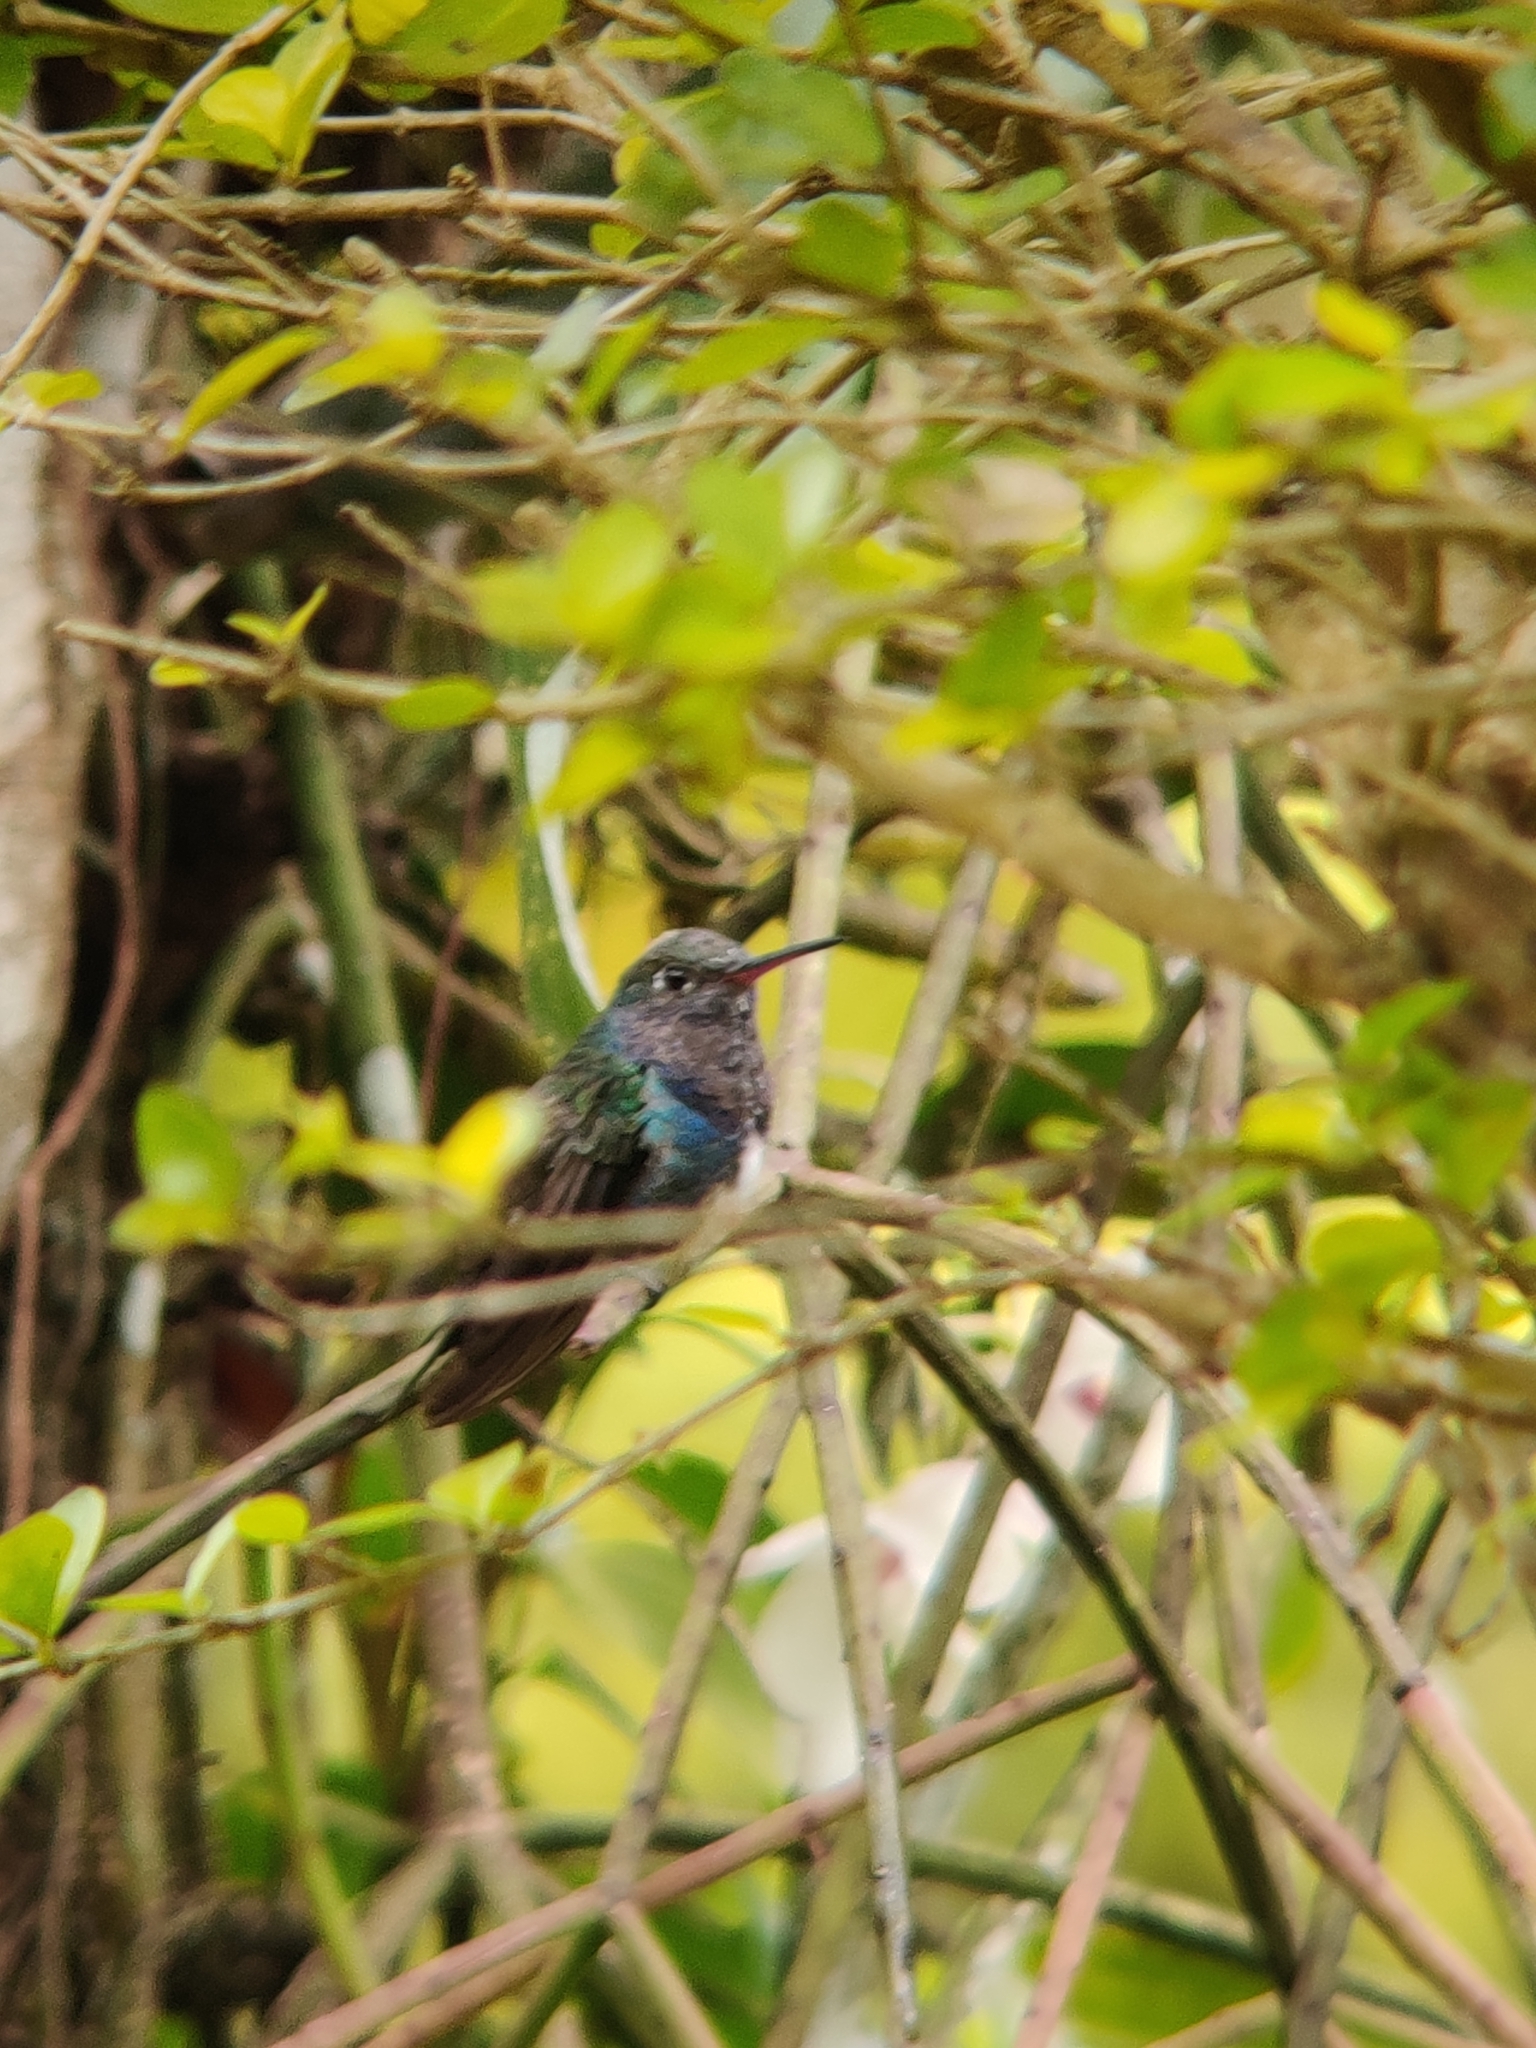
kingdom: Animalia
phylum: Chordata
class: Aves
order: Apodiformes
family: Trochilidae
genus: Chionomesa
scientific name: Chionomesa lactea
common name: Sapphire-spangled emerald
